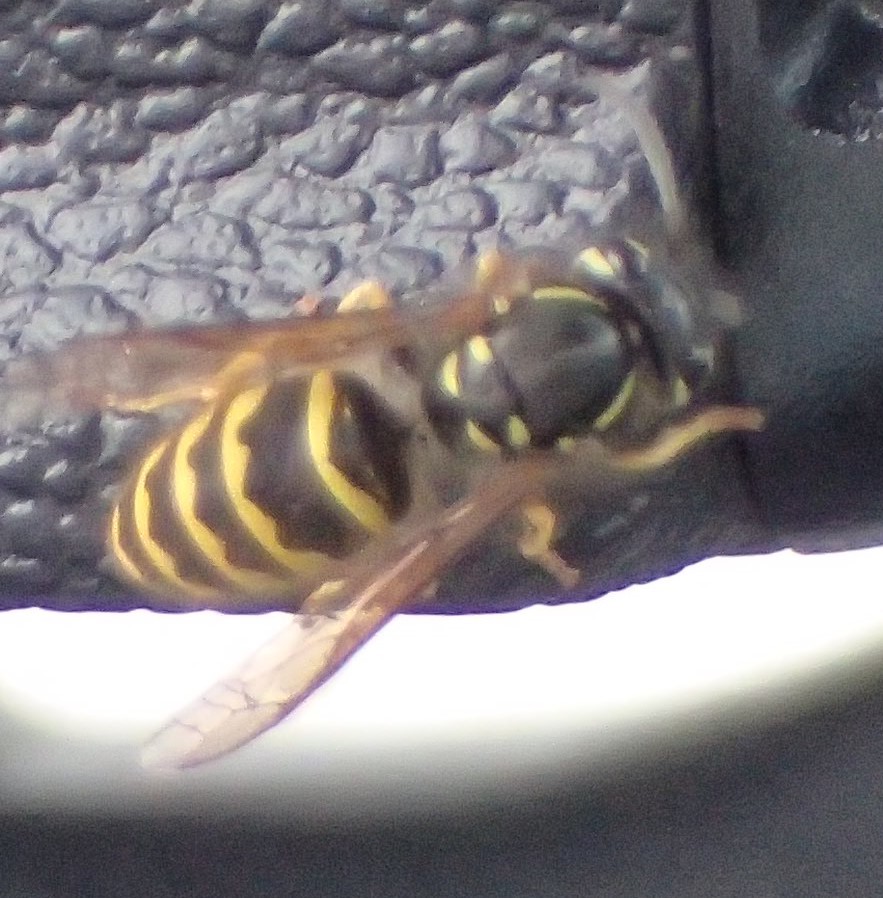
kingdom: Animalia
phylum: Arthropoda
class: Insecta
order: Hymenoptera
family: Vespidae
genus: Vespula
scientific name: Vespula alascensis
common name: Alaska yellowjacket
